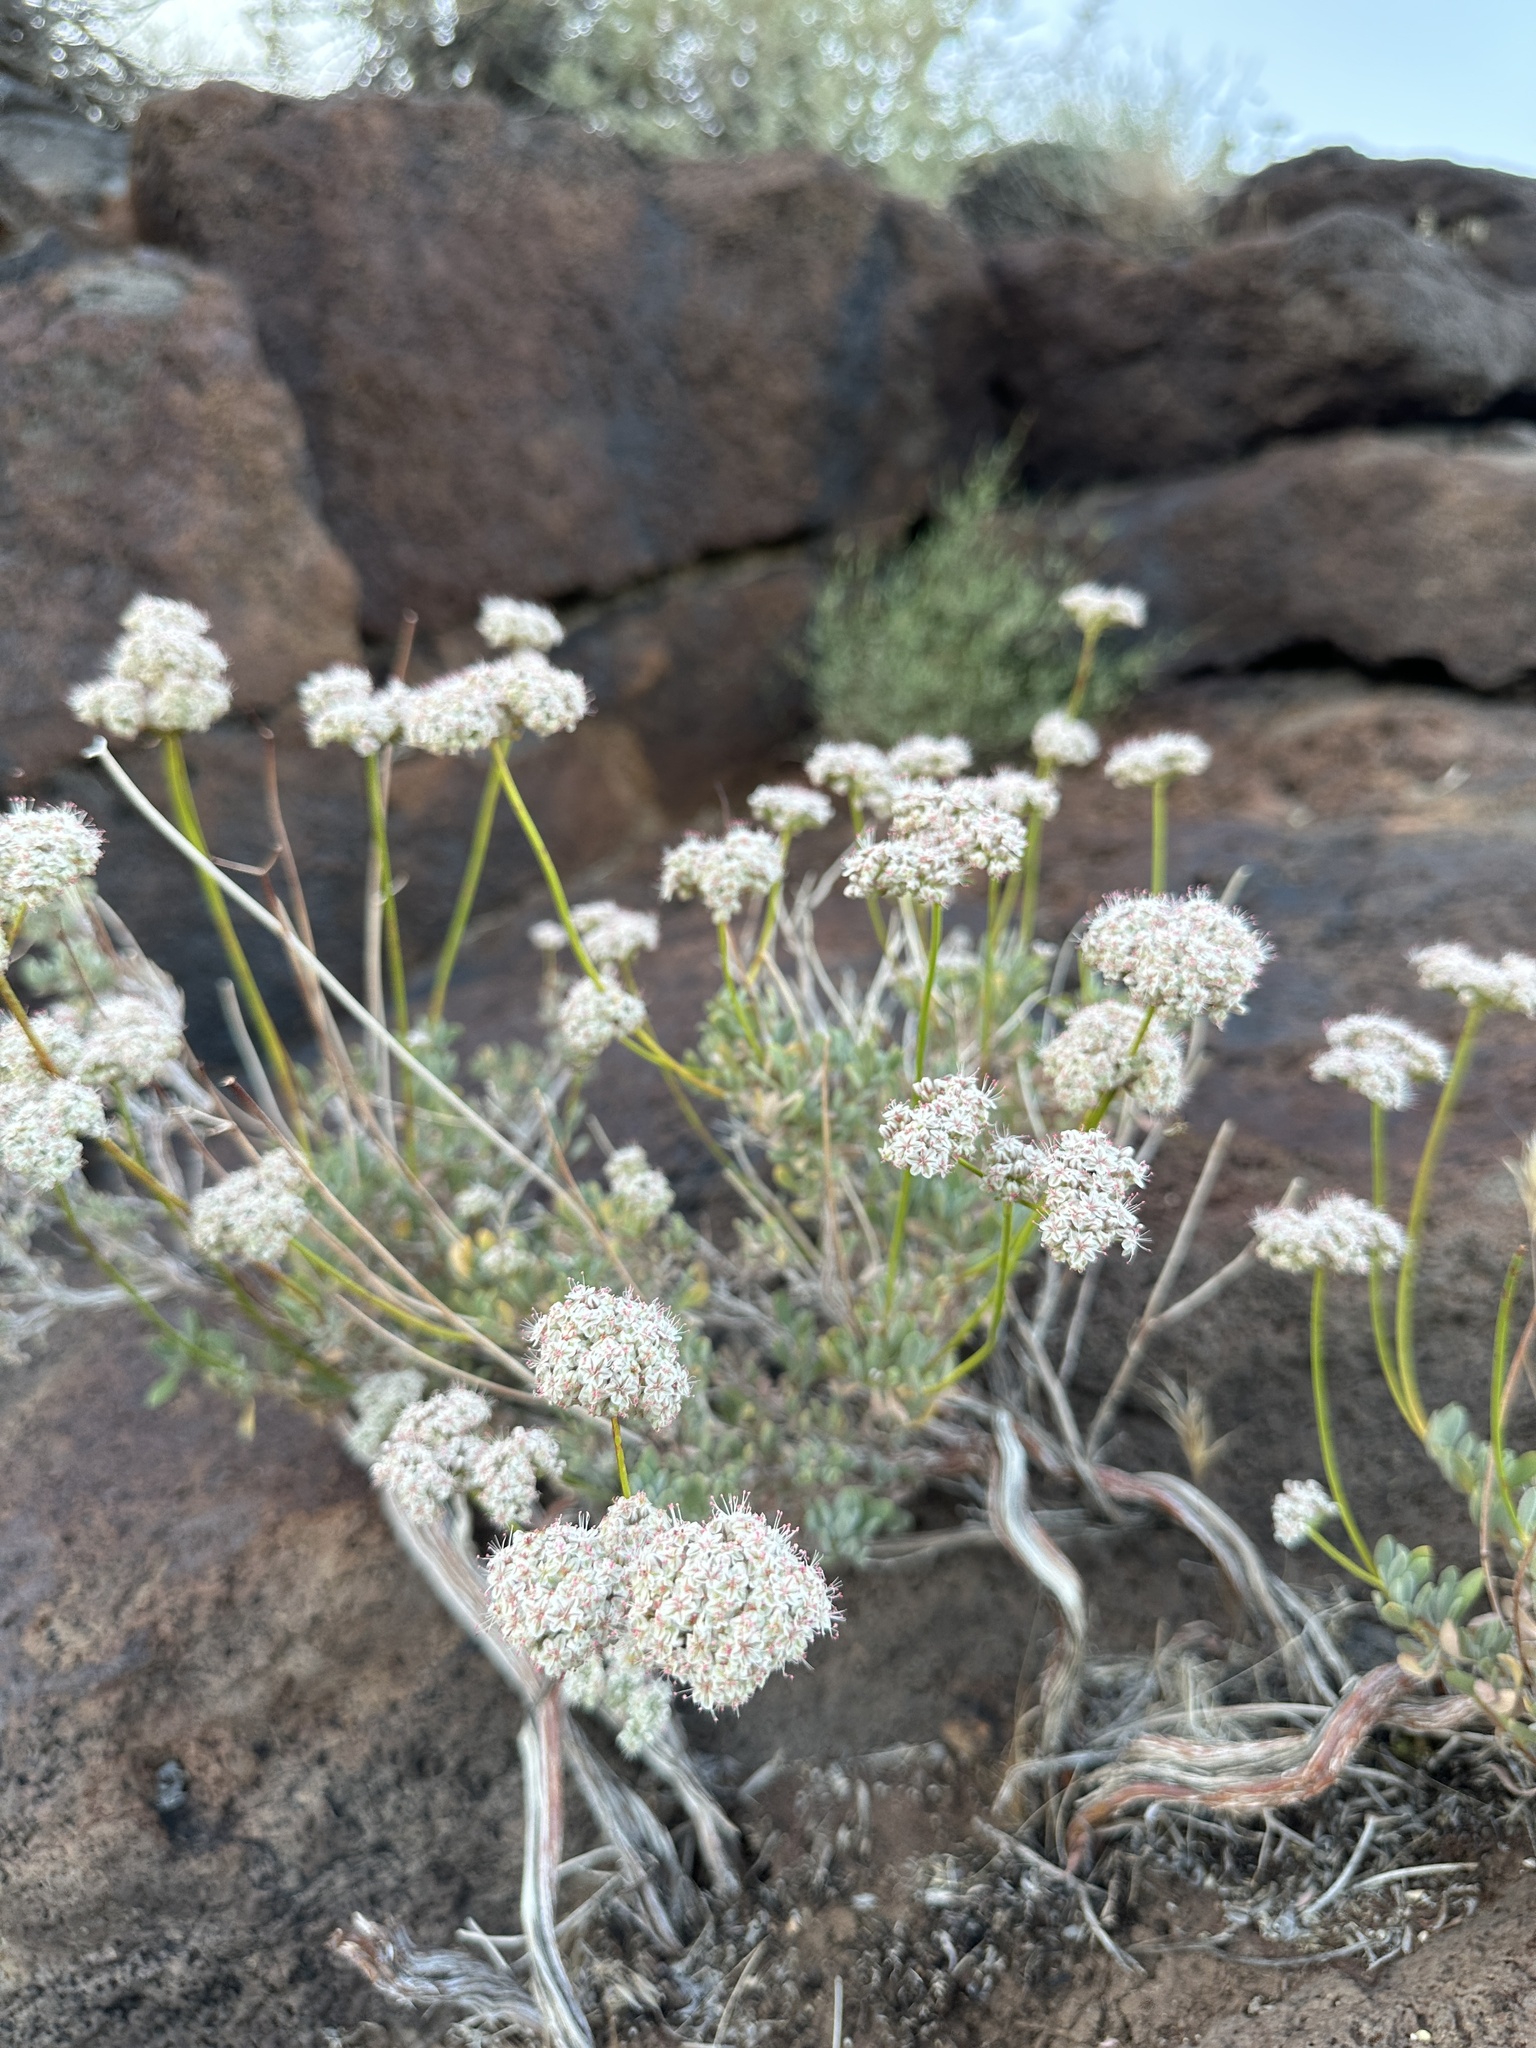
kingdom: Plantae
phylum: Tracheophyta
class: Magnoliopsida
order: Caryophyllales
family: Polygonaceae
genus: Eriogonum
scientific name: Eriogonum fasciculatum
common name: California wild buckwheat
